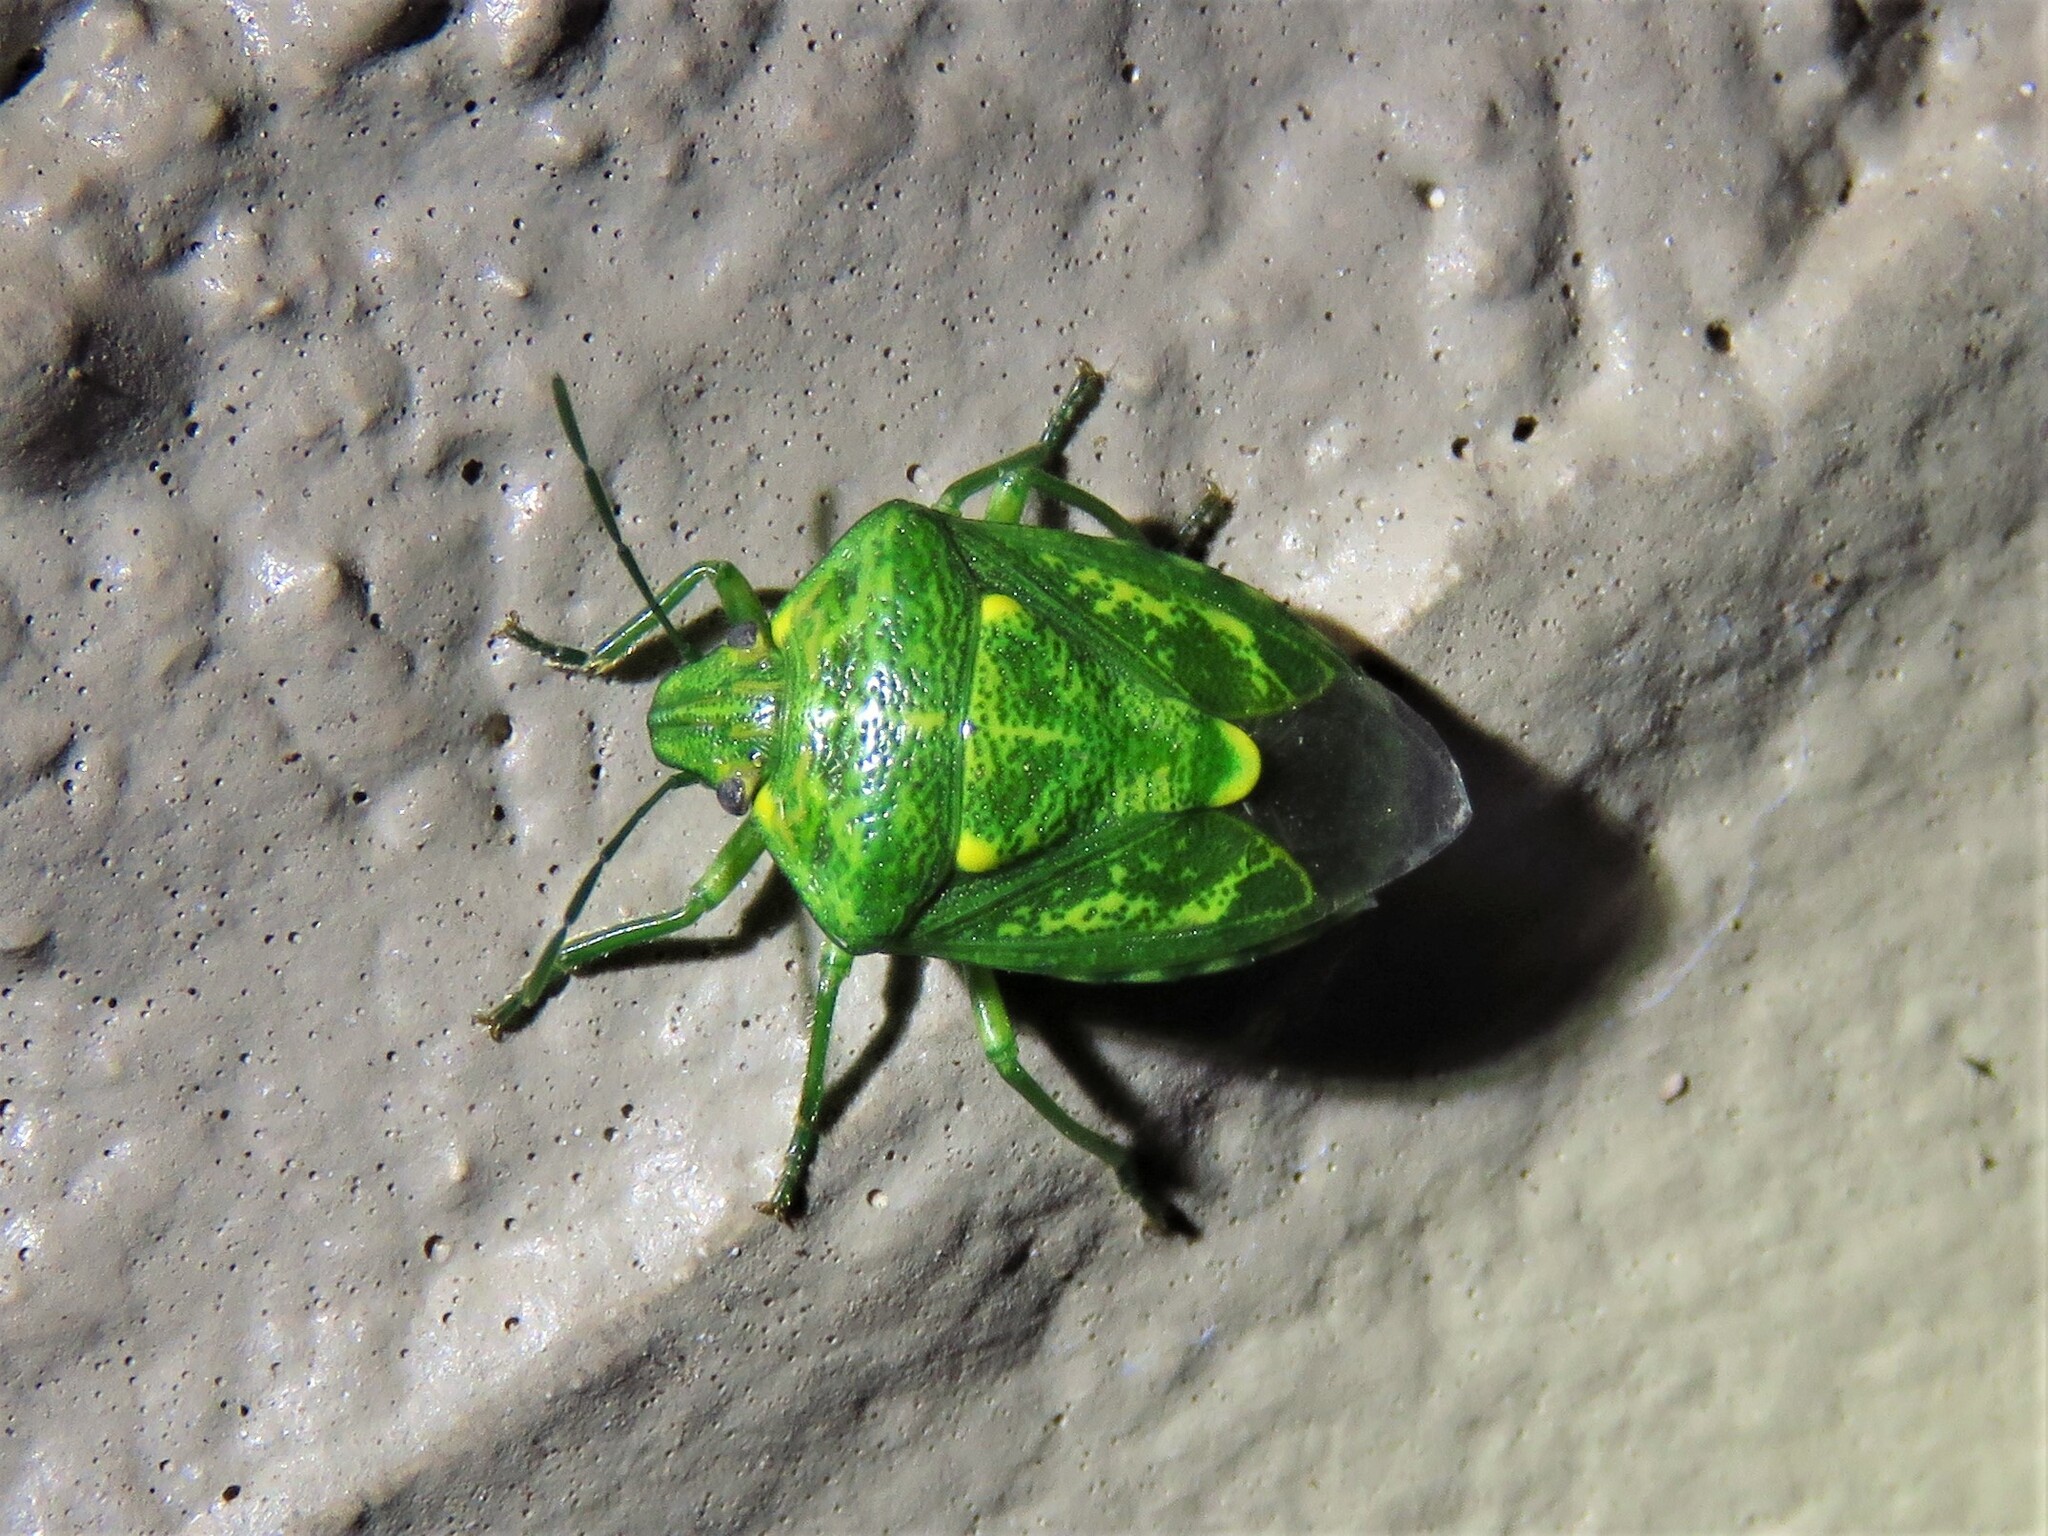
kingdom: Animalia
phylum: Arthropoda
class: Insecta
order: Hemiptera
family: Pentatomidae
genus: Banasa
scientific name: Banasa euchlora
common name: Cedar berry bug
